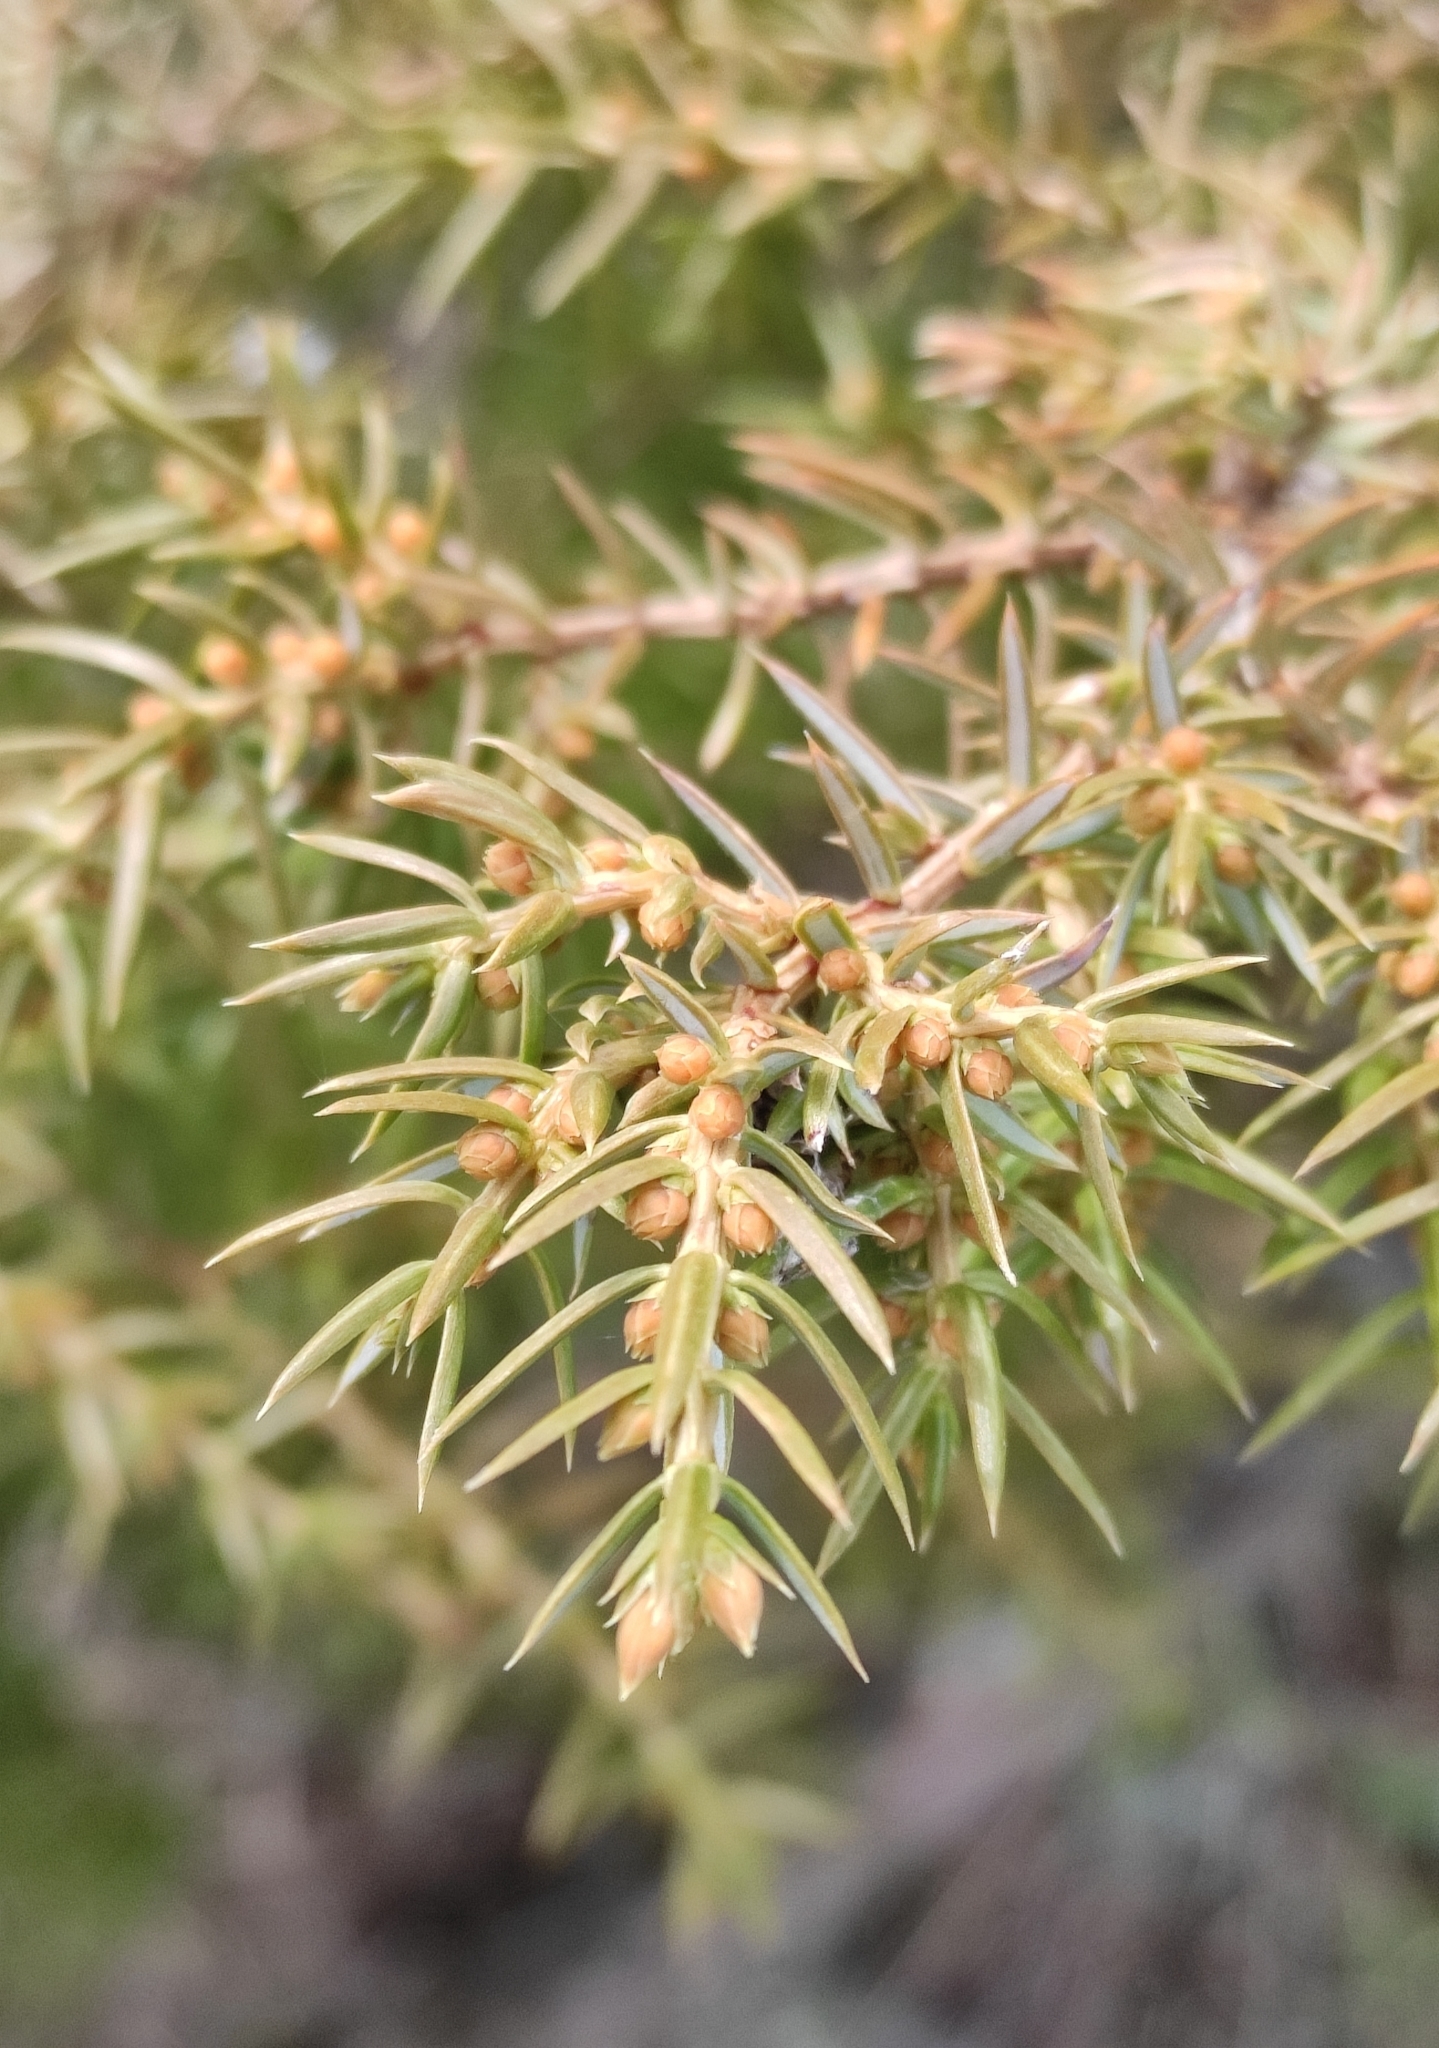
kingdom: Plantae
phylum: Tracheophyta
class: Pinopsida
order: Pinales
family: Cupressaceae
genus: Juniperus
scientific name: Juniperus communis
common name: Common juniper
